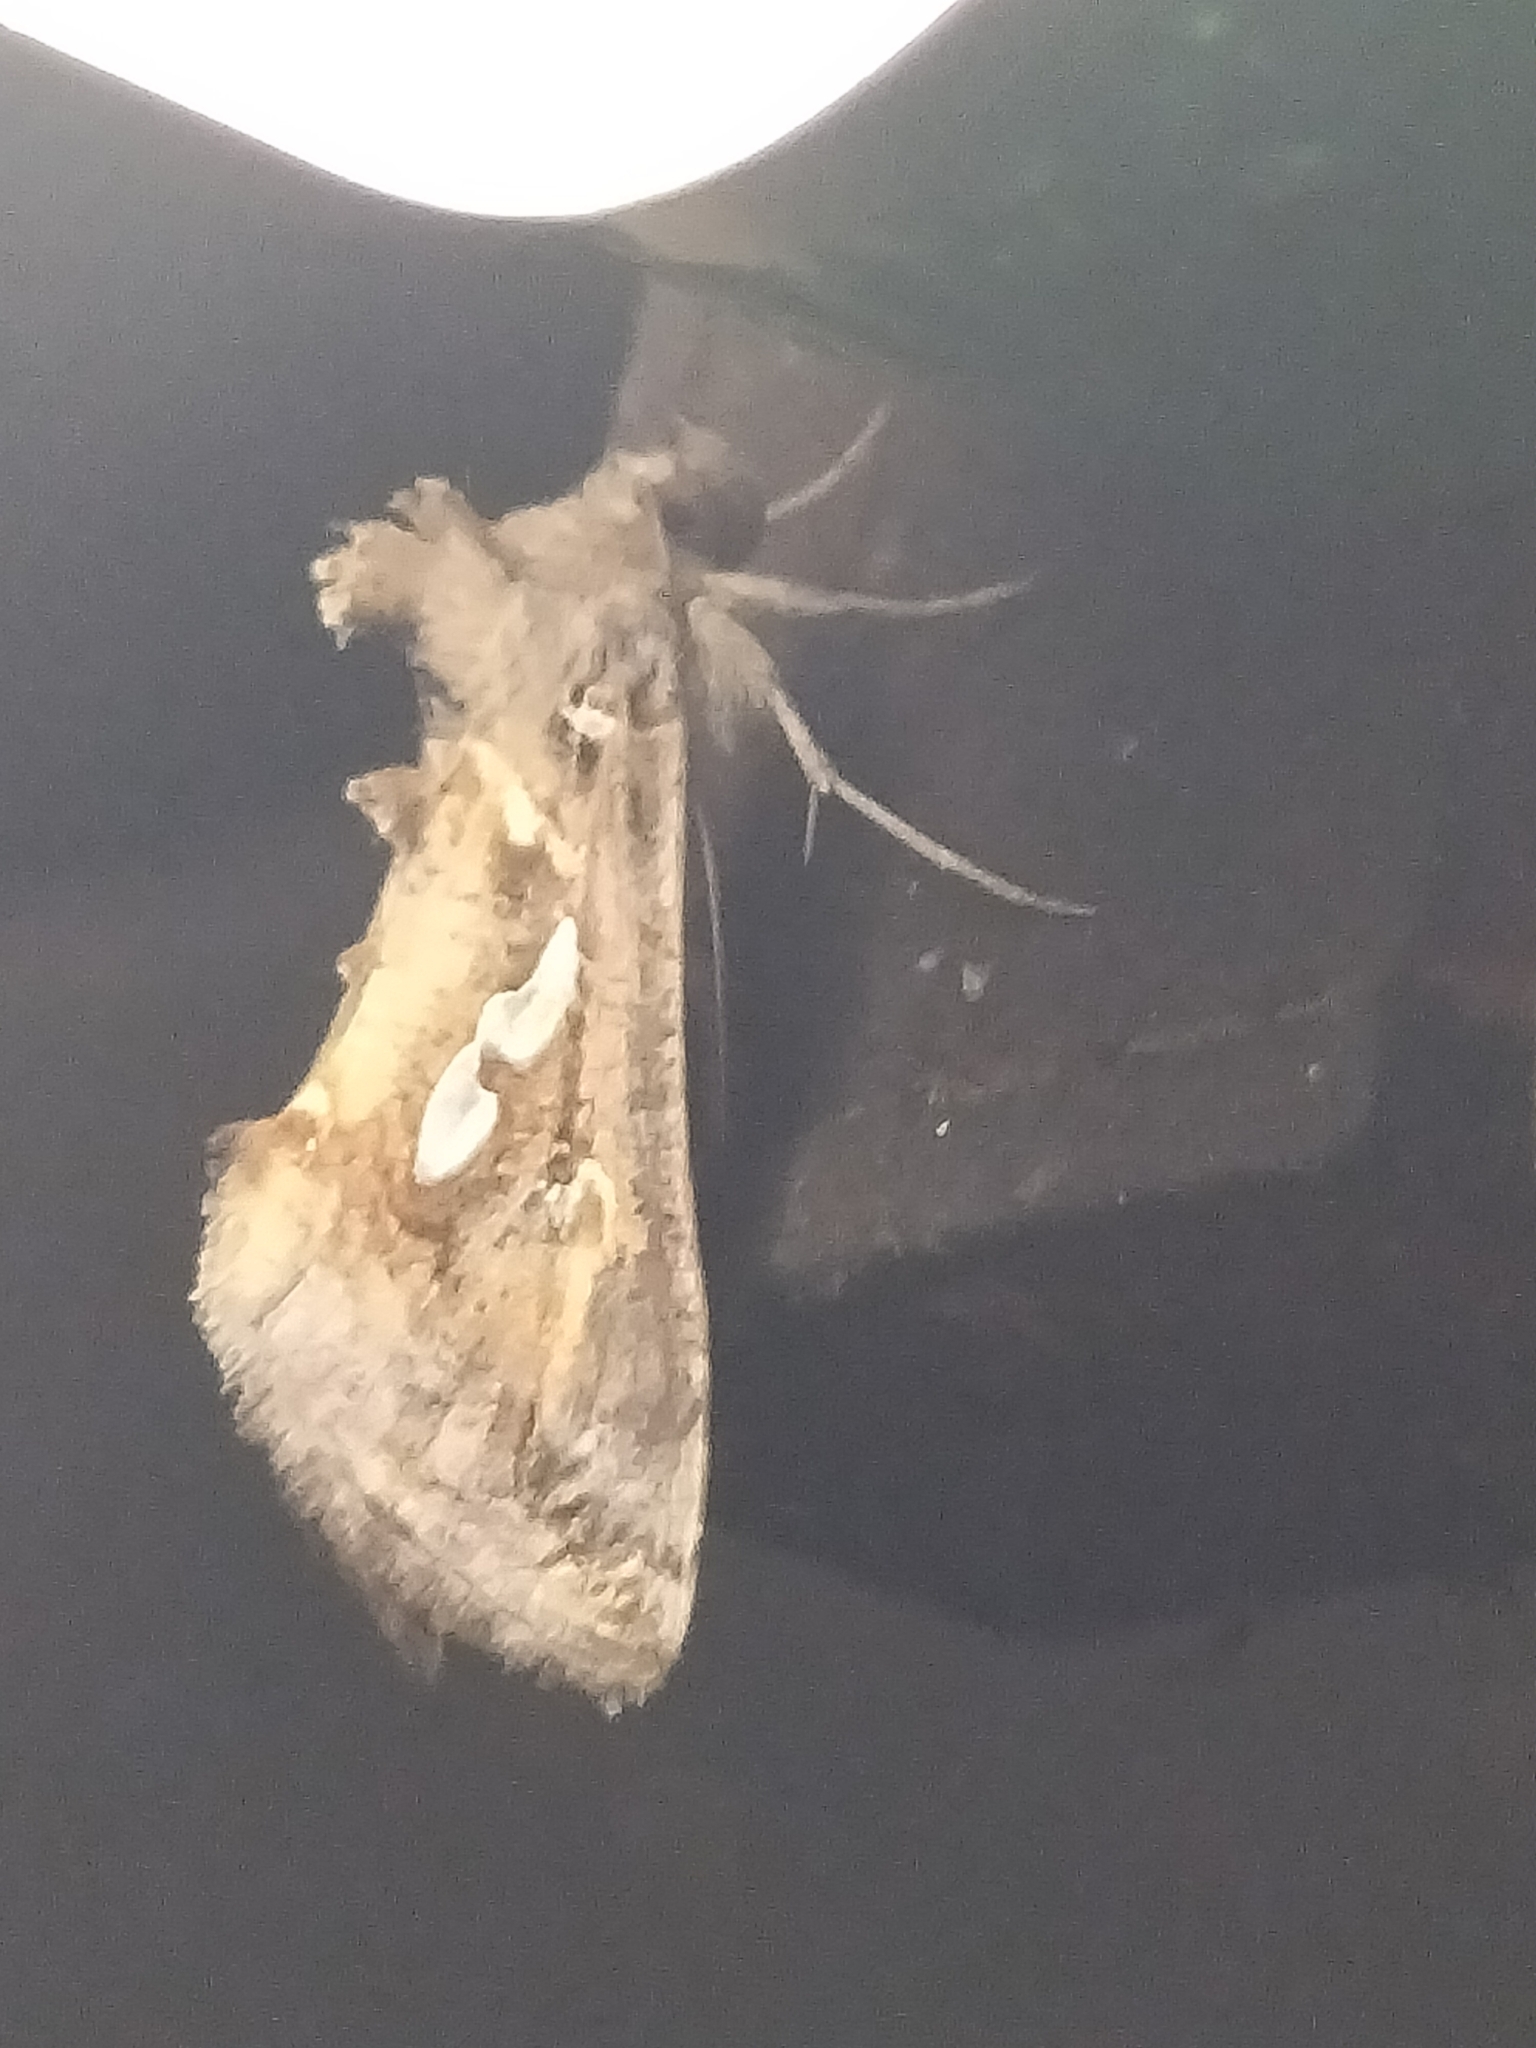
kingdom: Animalia
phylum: Arthropoda
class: Insecta
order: Lepidoptera
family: Noctuidae
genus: Chrysodeixis
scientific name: Chrysodeixis argentifera
